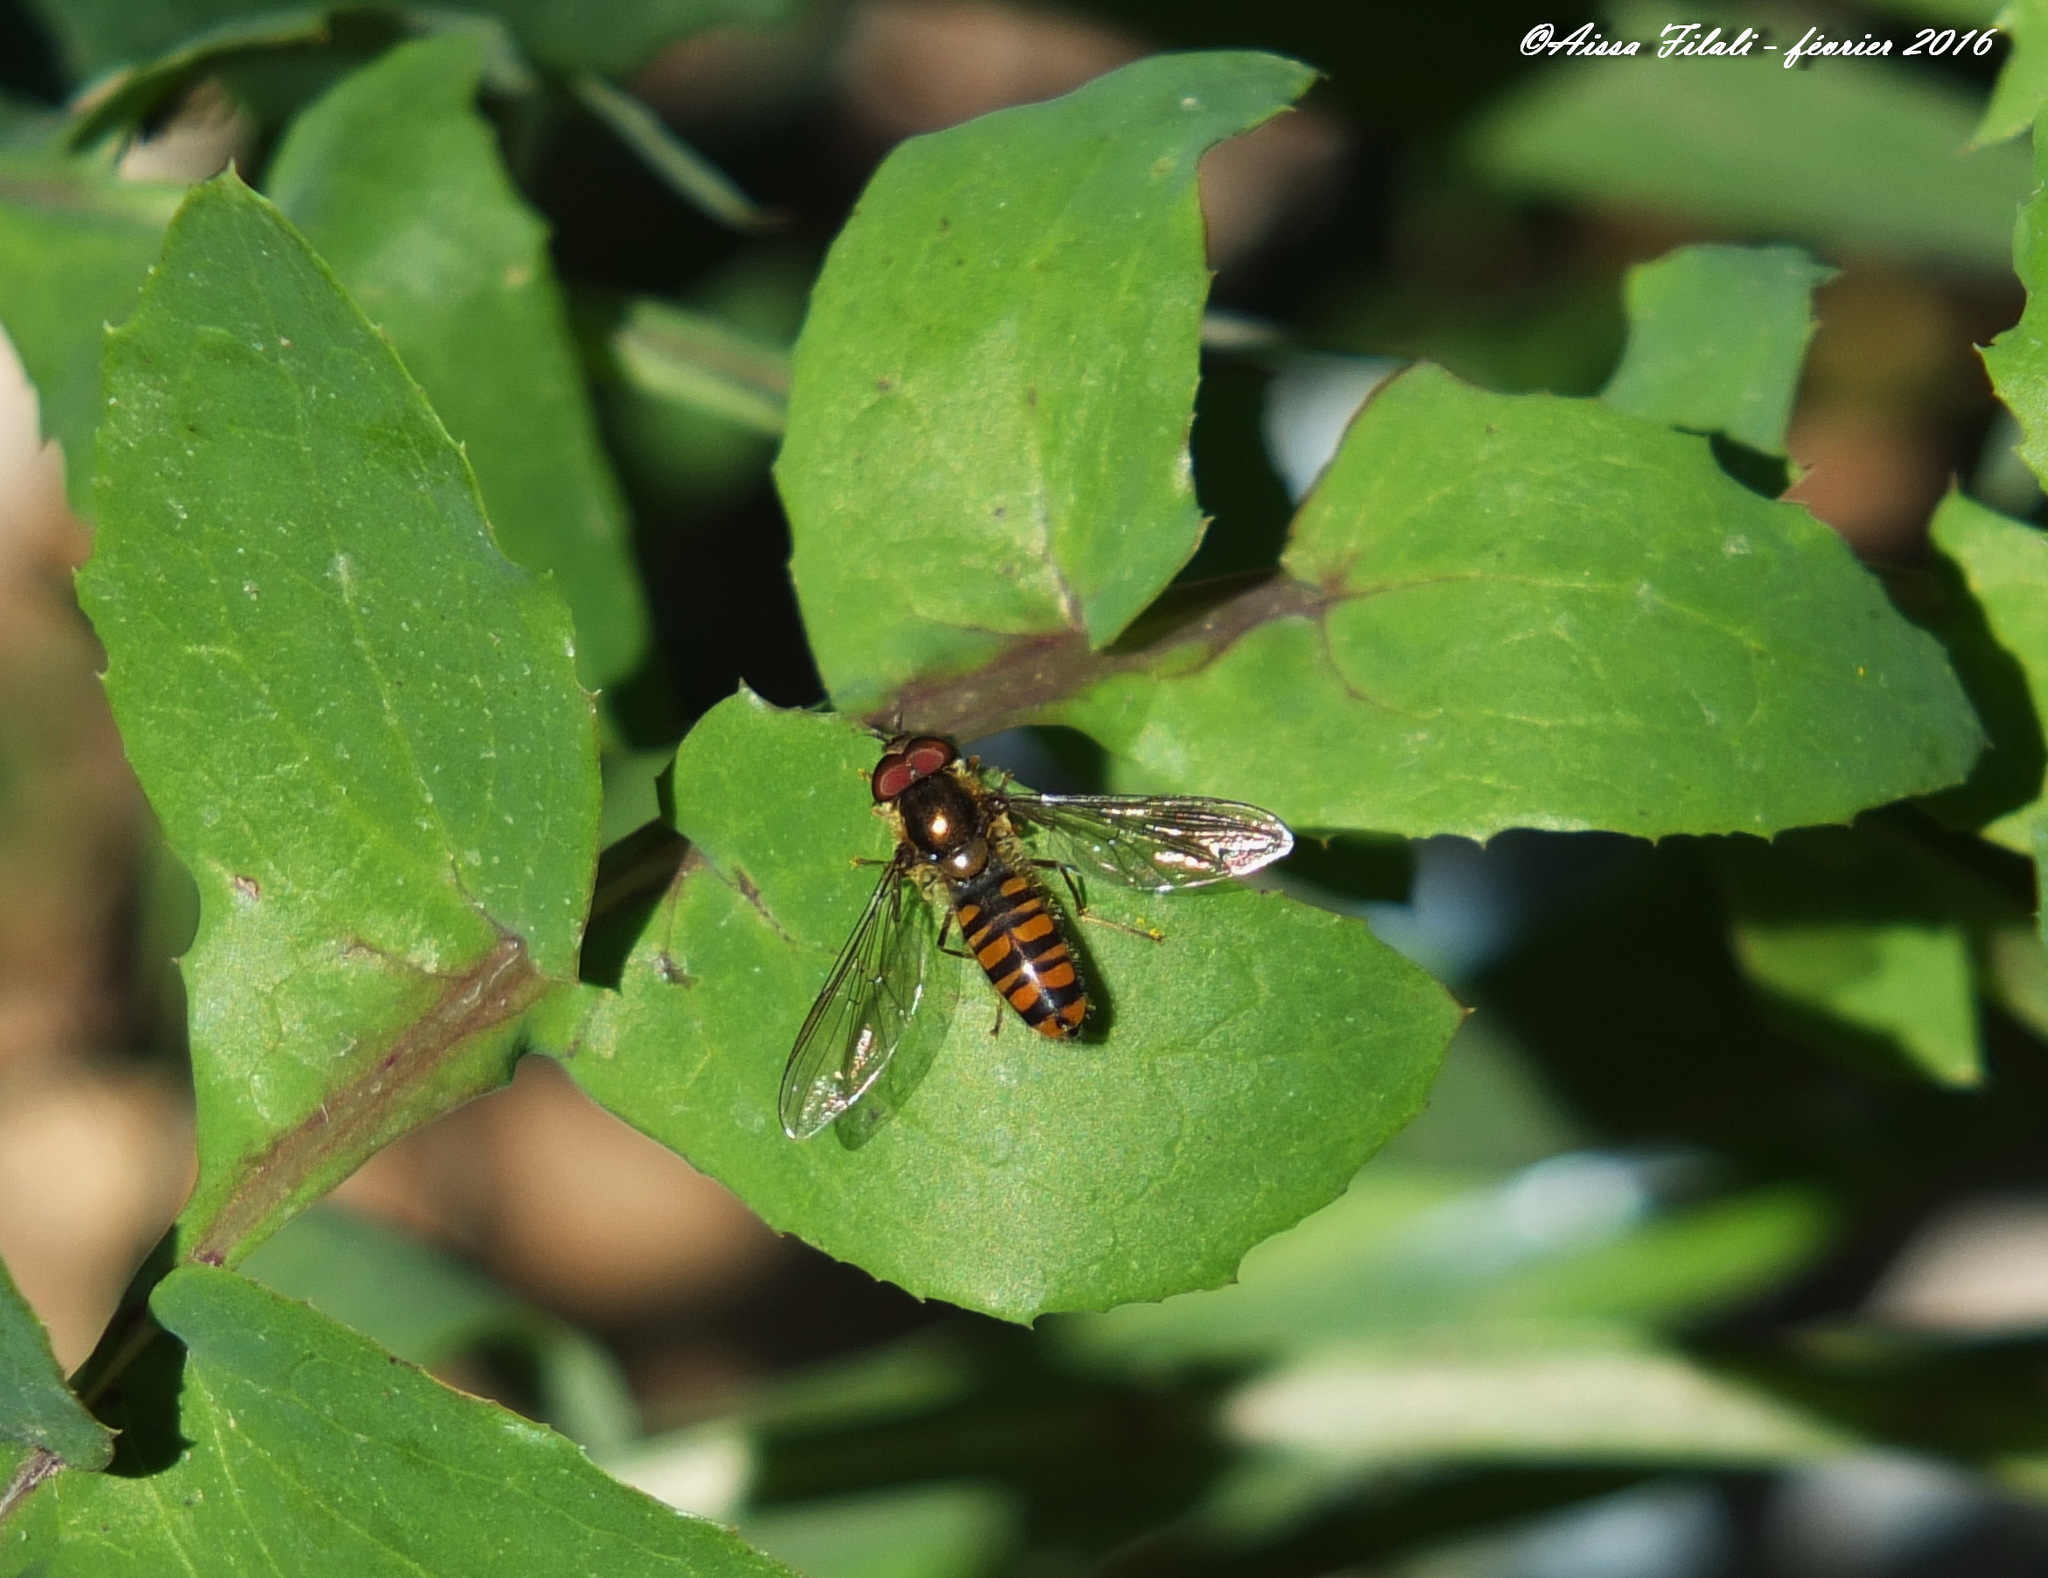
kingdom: Animalia
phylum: Arthropoda
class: Insecta
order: Diptera
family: Syrphidae
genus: Episyrphus
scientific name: Episyrphus balteatus
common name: Marmalade hoverfly
